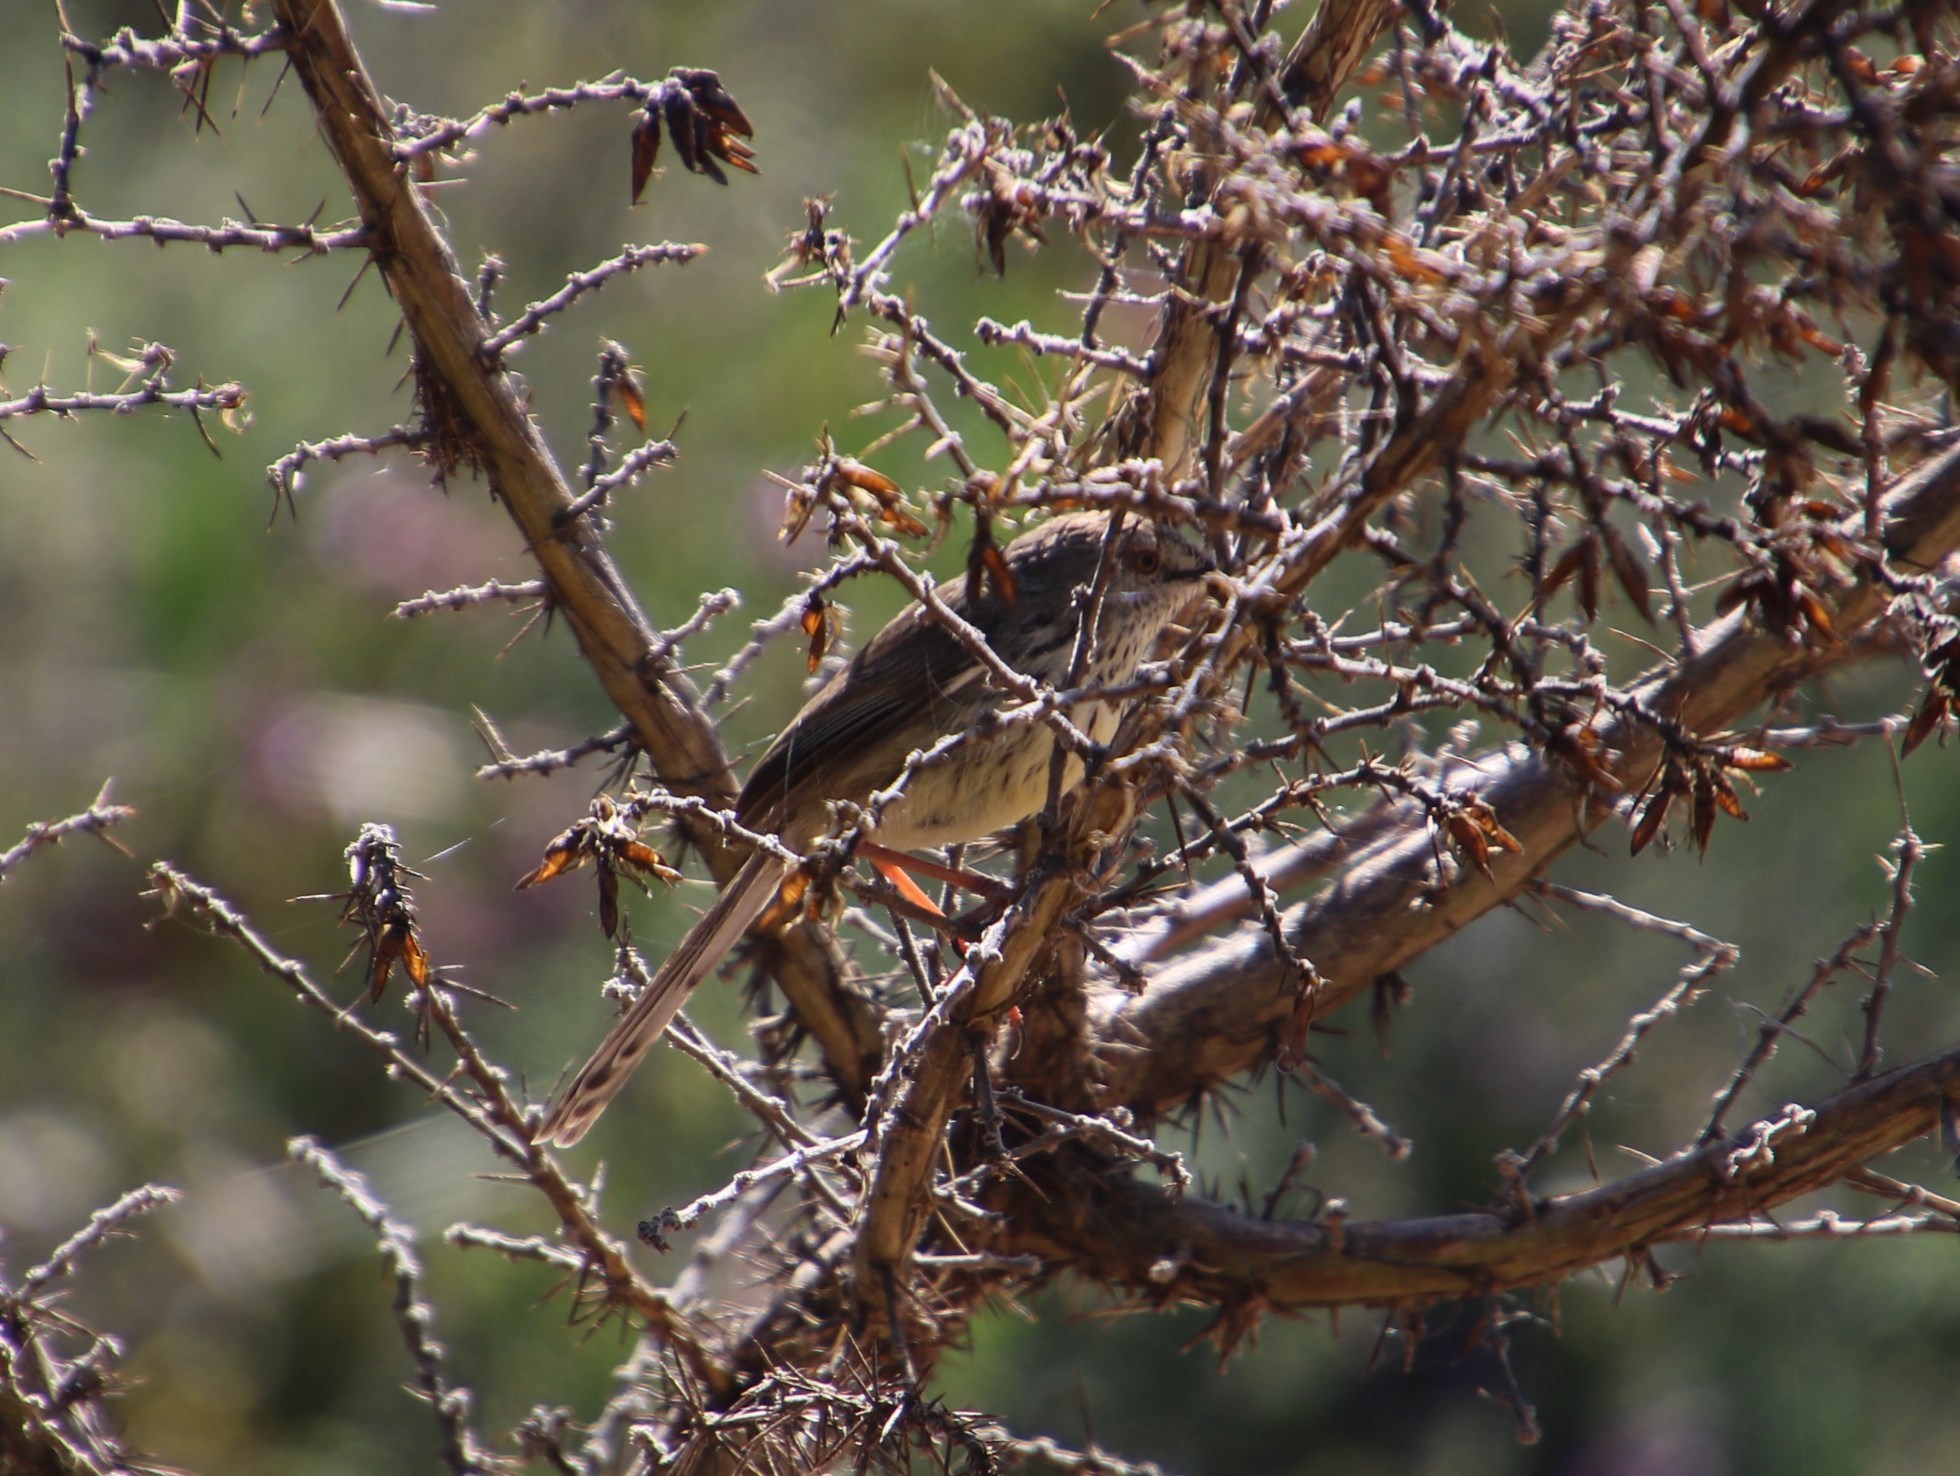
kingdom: Animalia
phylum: Chordata
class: Aves
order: Passeriformes
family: Cisticolidae
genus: Prinia
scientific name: Prinia maculosa
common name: Karoo prinia
